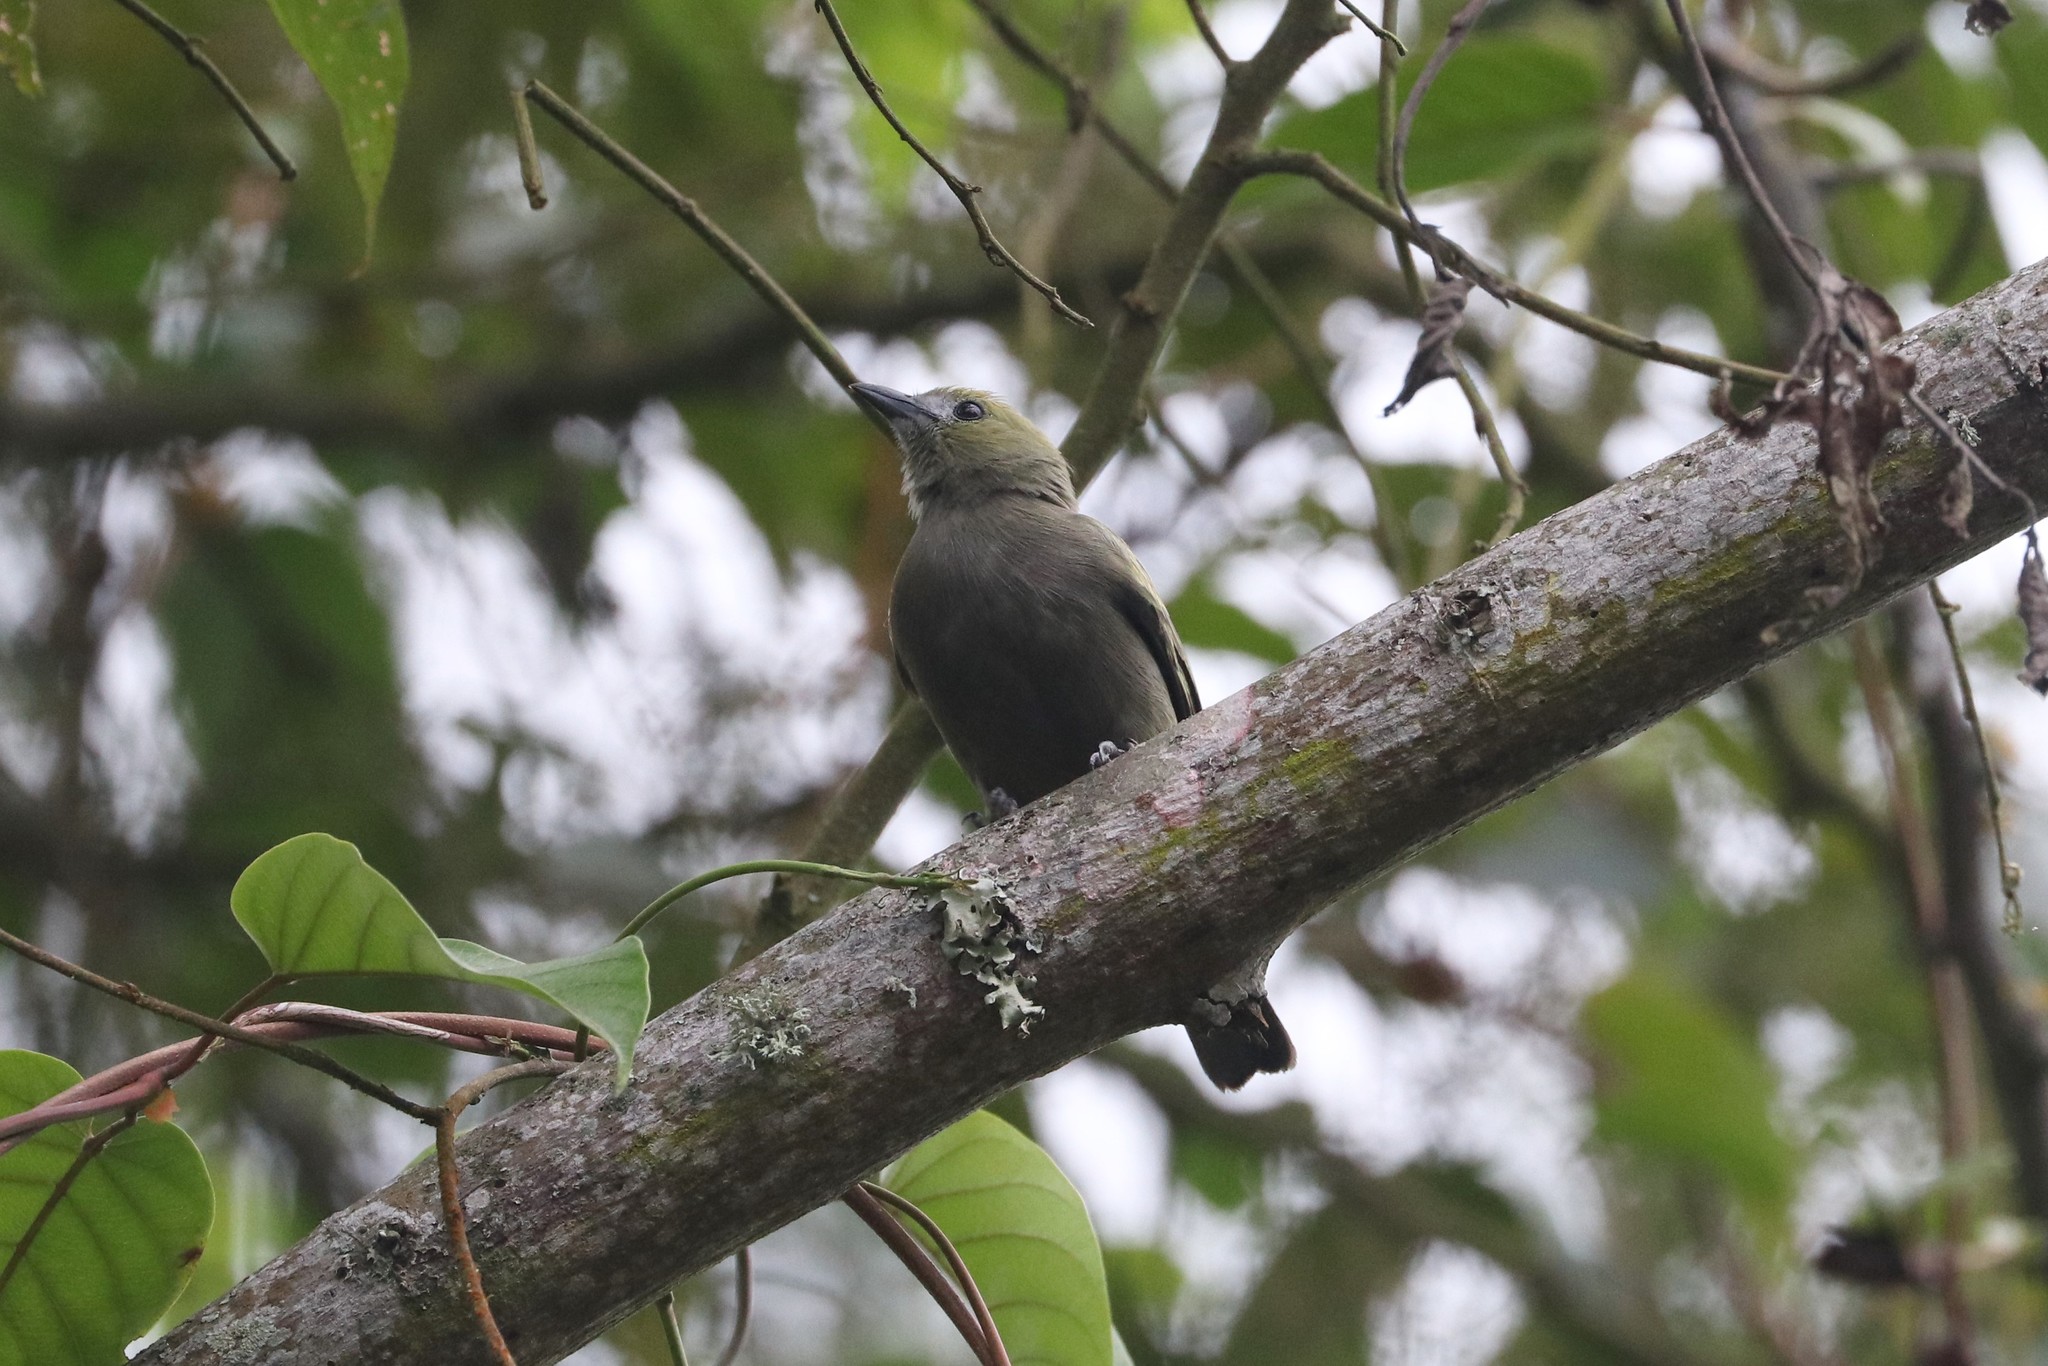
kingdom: Animalia
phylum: Chordata
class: Aves
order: Passeriformes
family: Thraupidae
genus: Thraupis
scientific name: Thraupis palmarum
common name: Palm tanager
